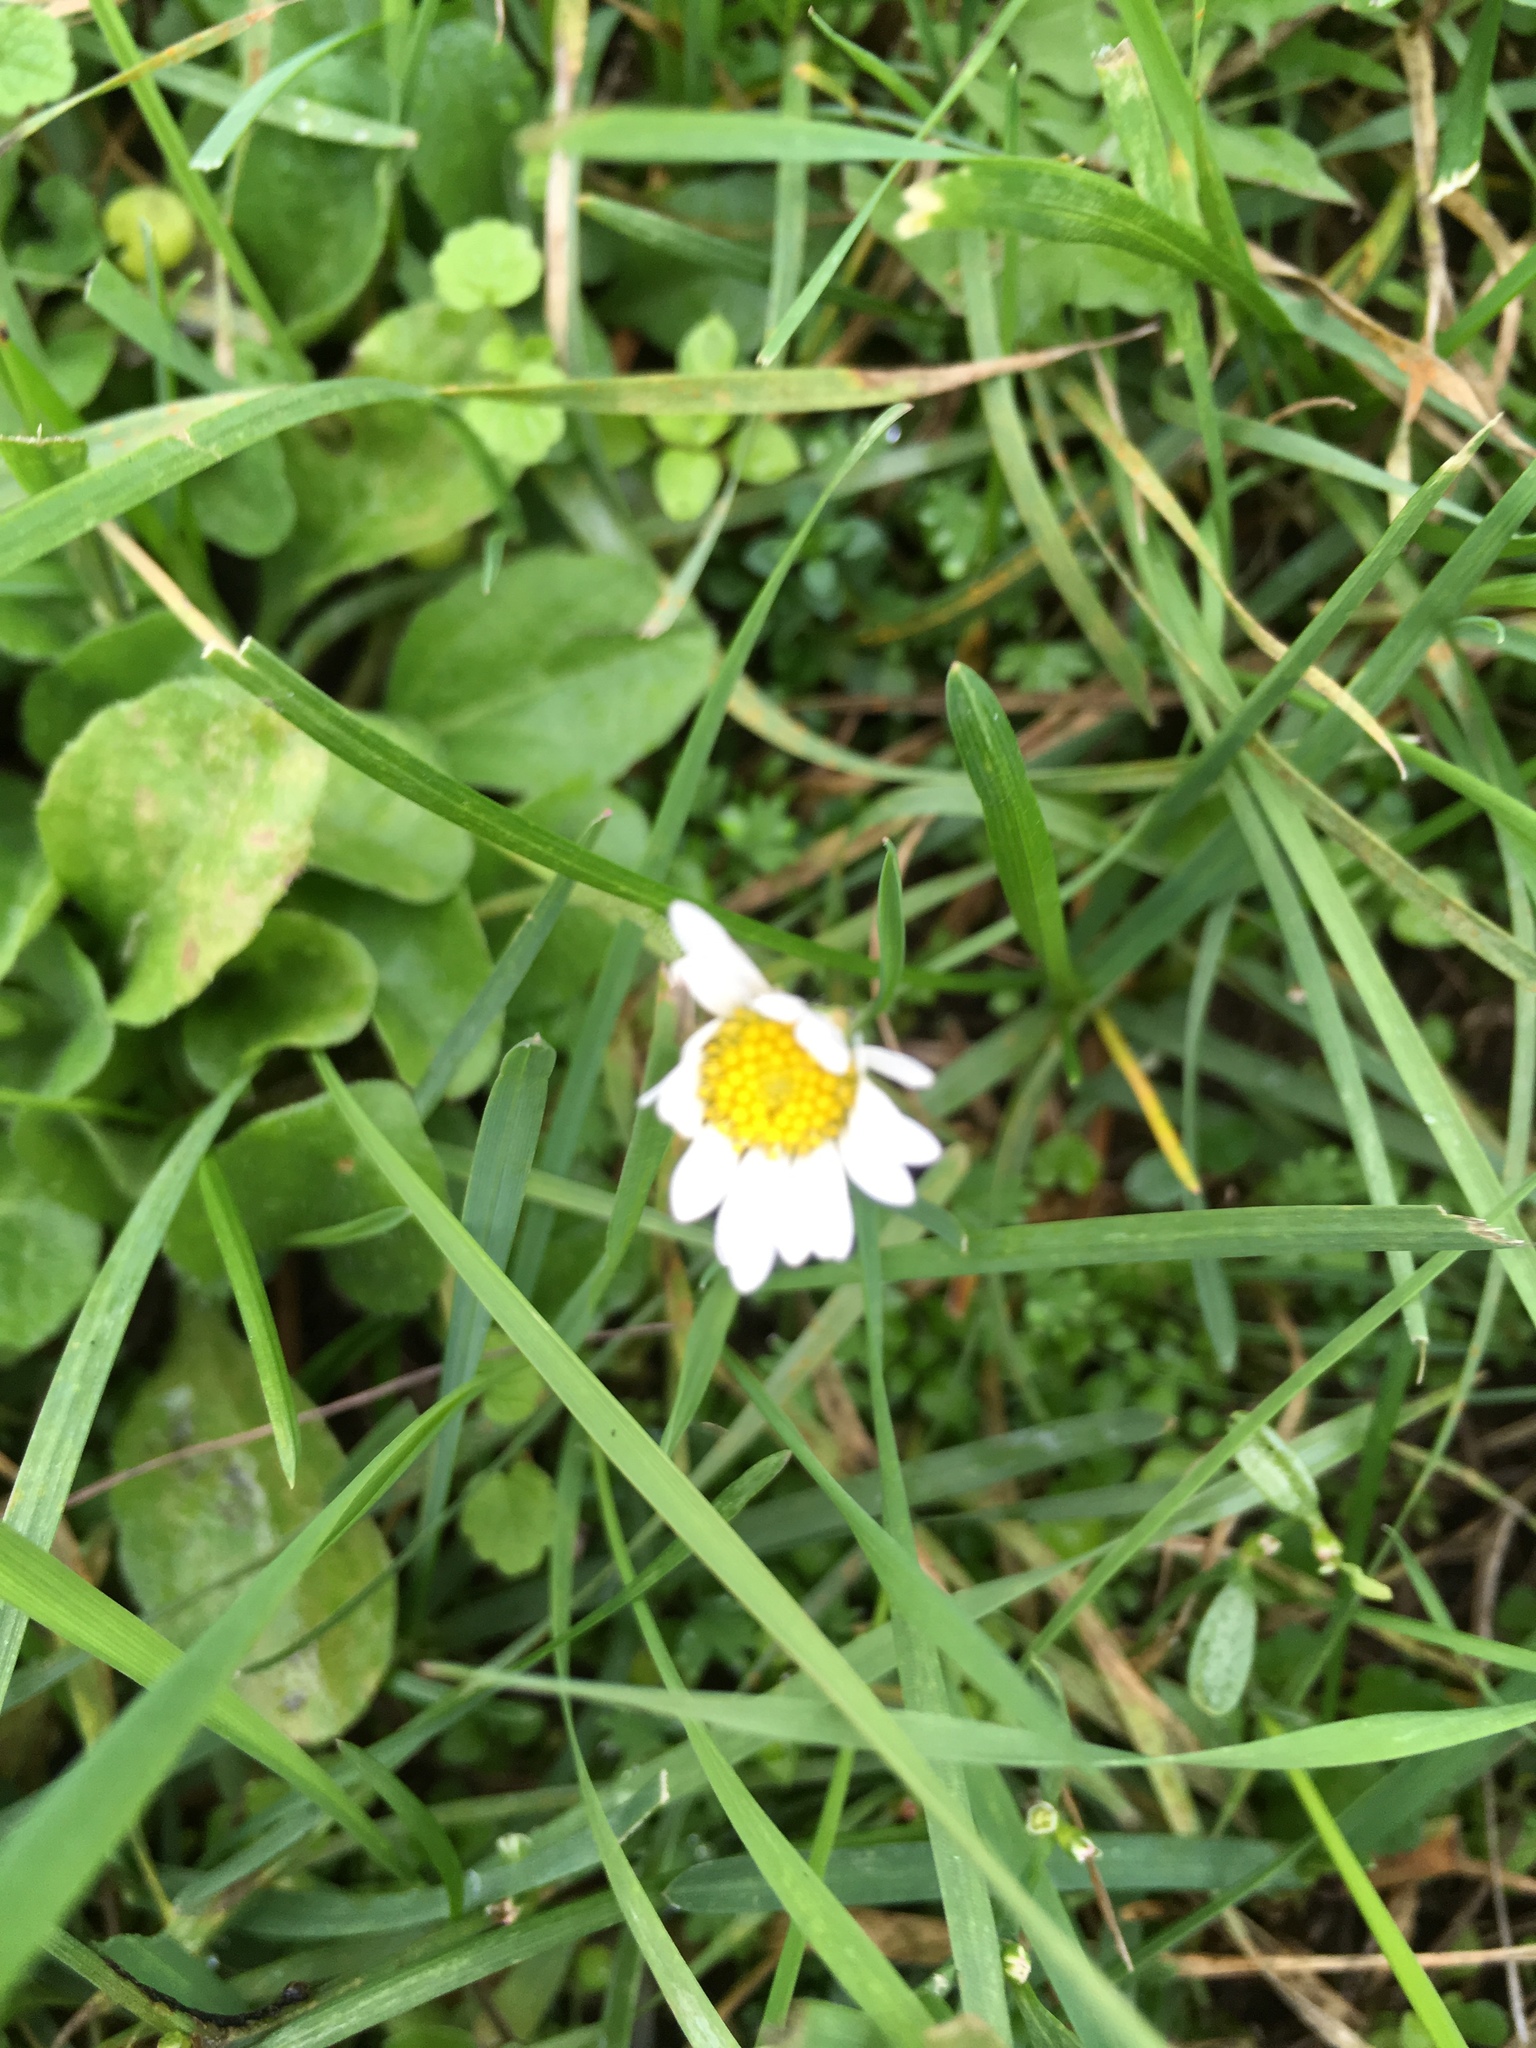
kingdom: Plantae
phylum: Tracheophyta
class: Magnoliopsida
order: Asterales
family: Asteraceae
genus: Bellis
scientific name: Bellis perennis
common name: Lawndaisy
